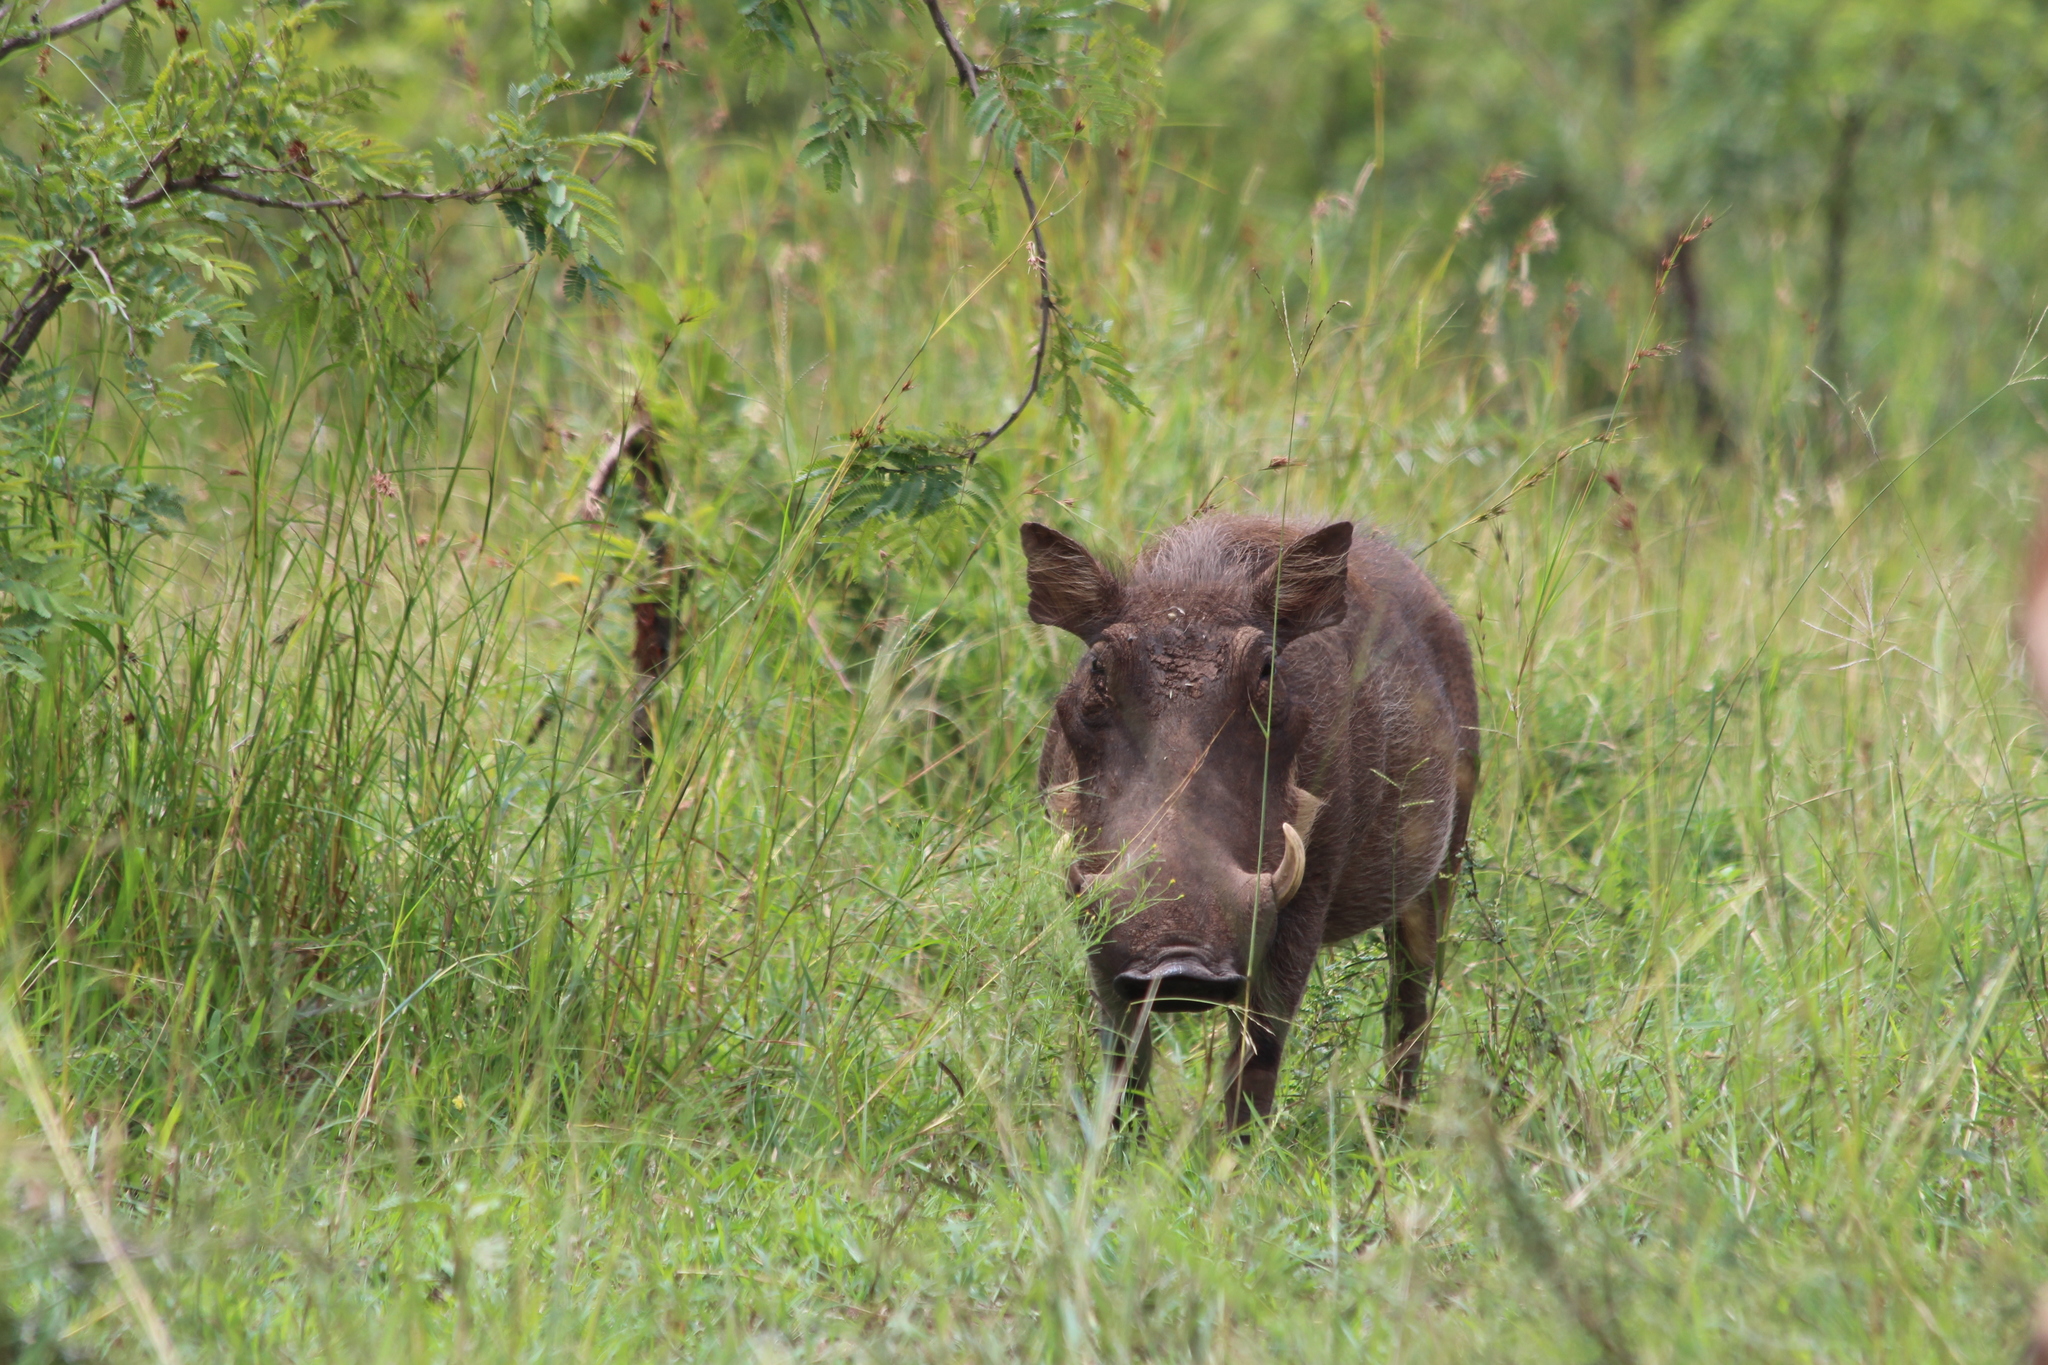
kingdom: Animalia
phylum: Chordata
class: Mammalia
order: Artiodactyla
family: Suidae
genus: Phacochoerus
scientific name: Phacochoerus africanus
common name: Common warthog
